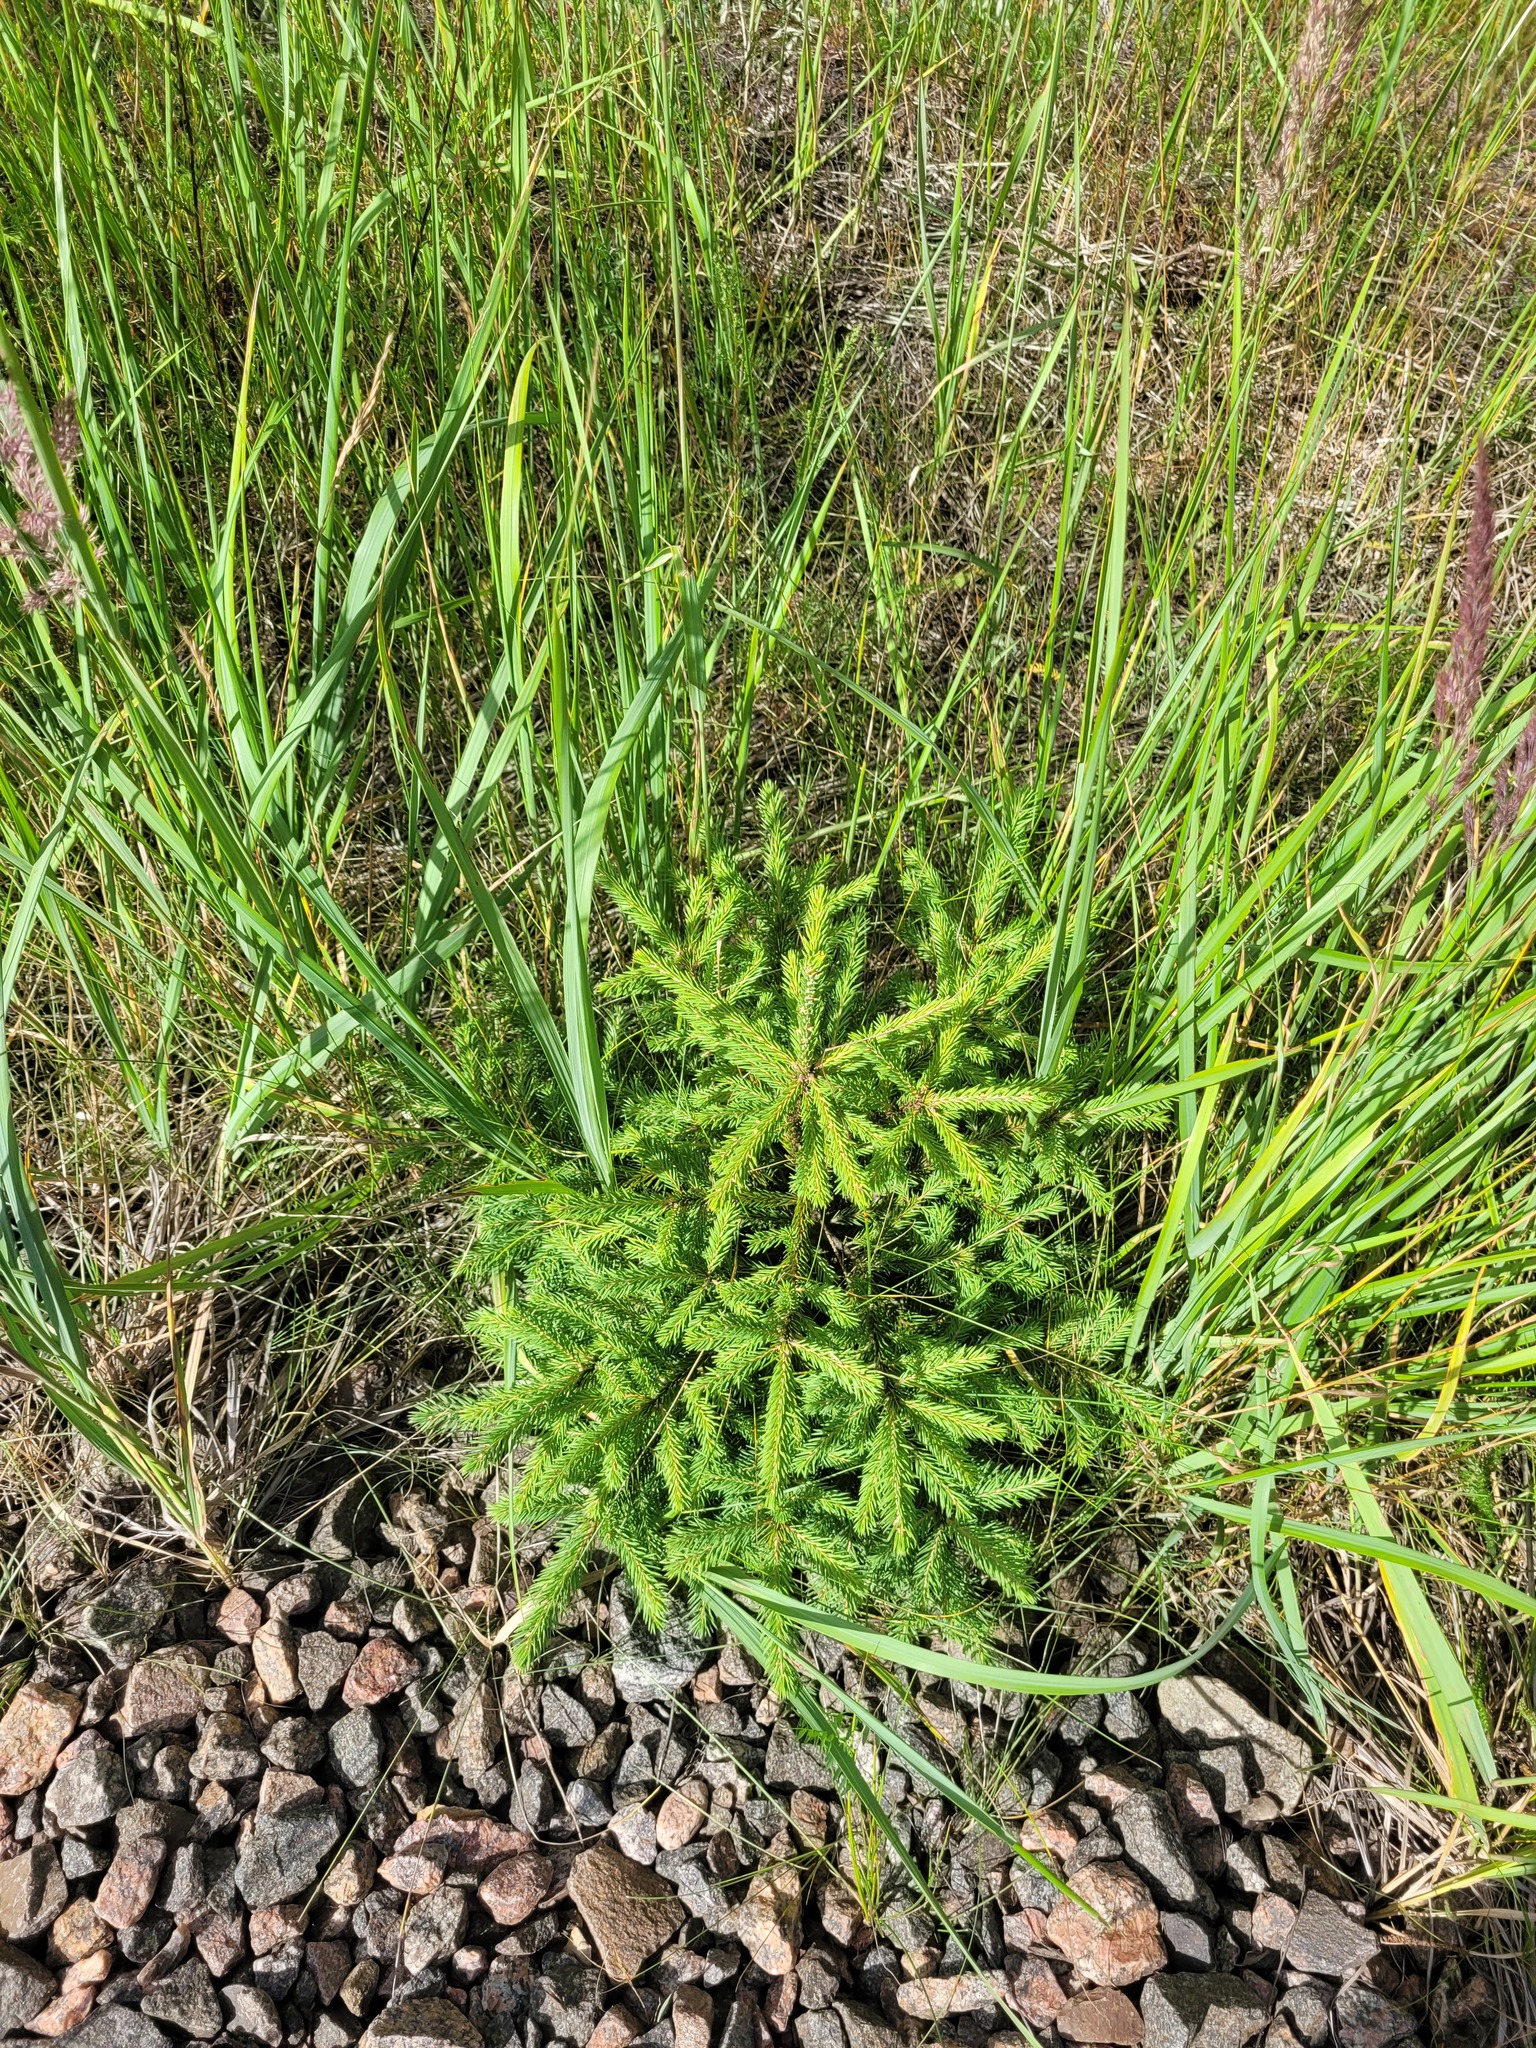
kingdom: Plantae
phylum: Tracheophyta
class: Pinopsida
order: Pinales
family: Pinaceae
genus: Picea
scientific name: Picea abies
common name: Norway spruce
